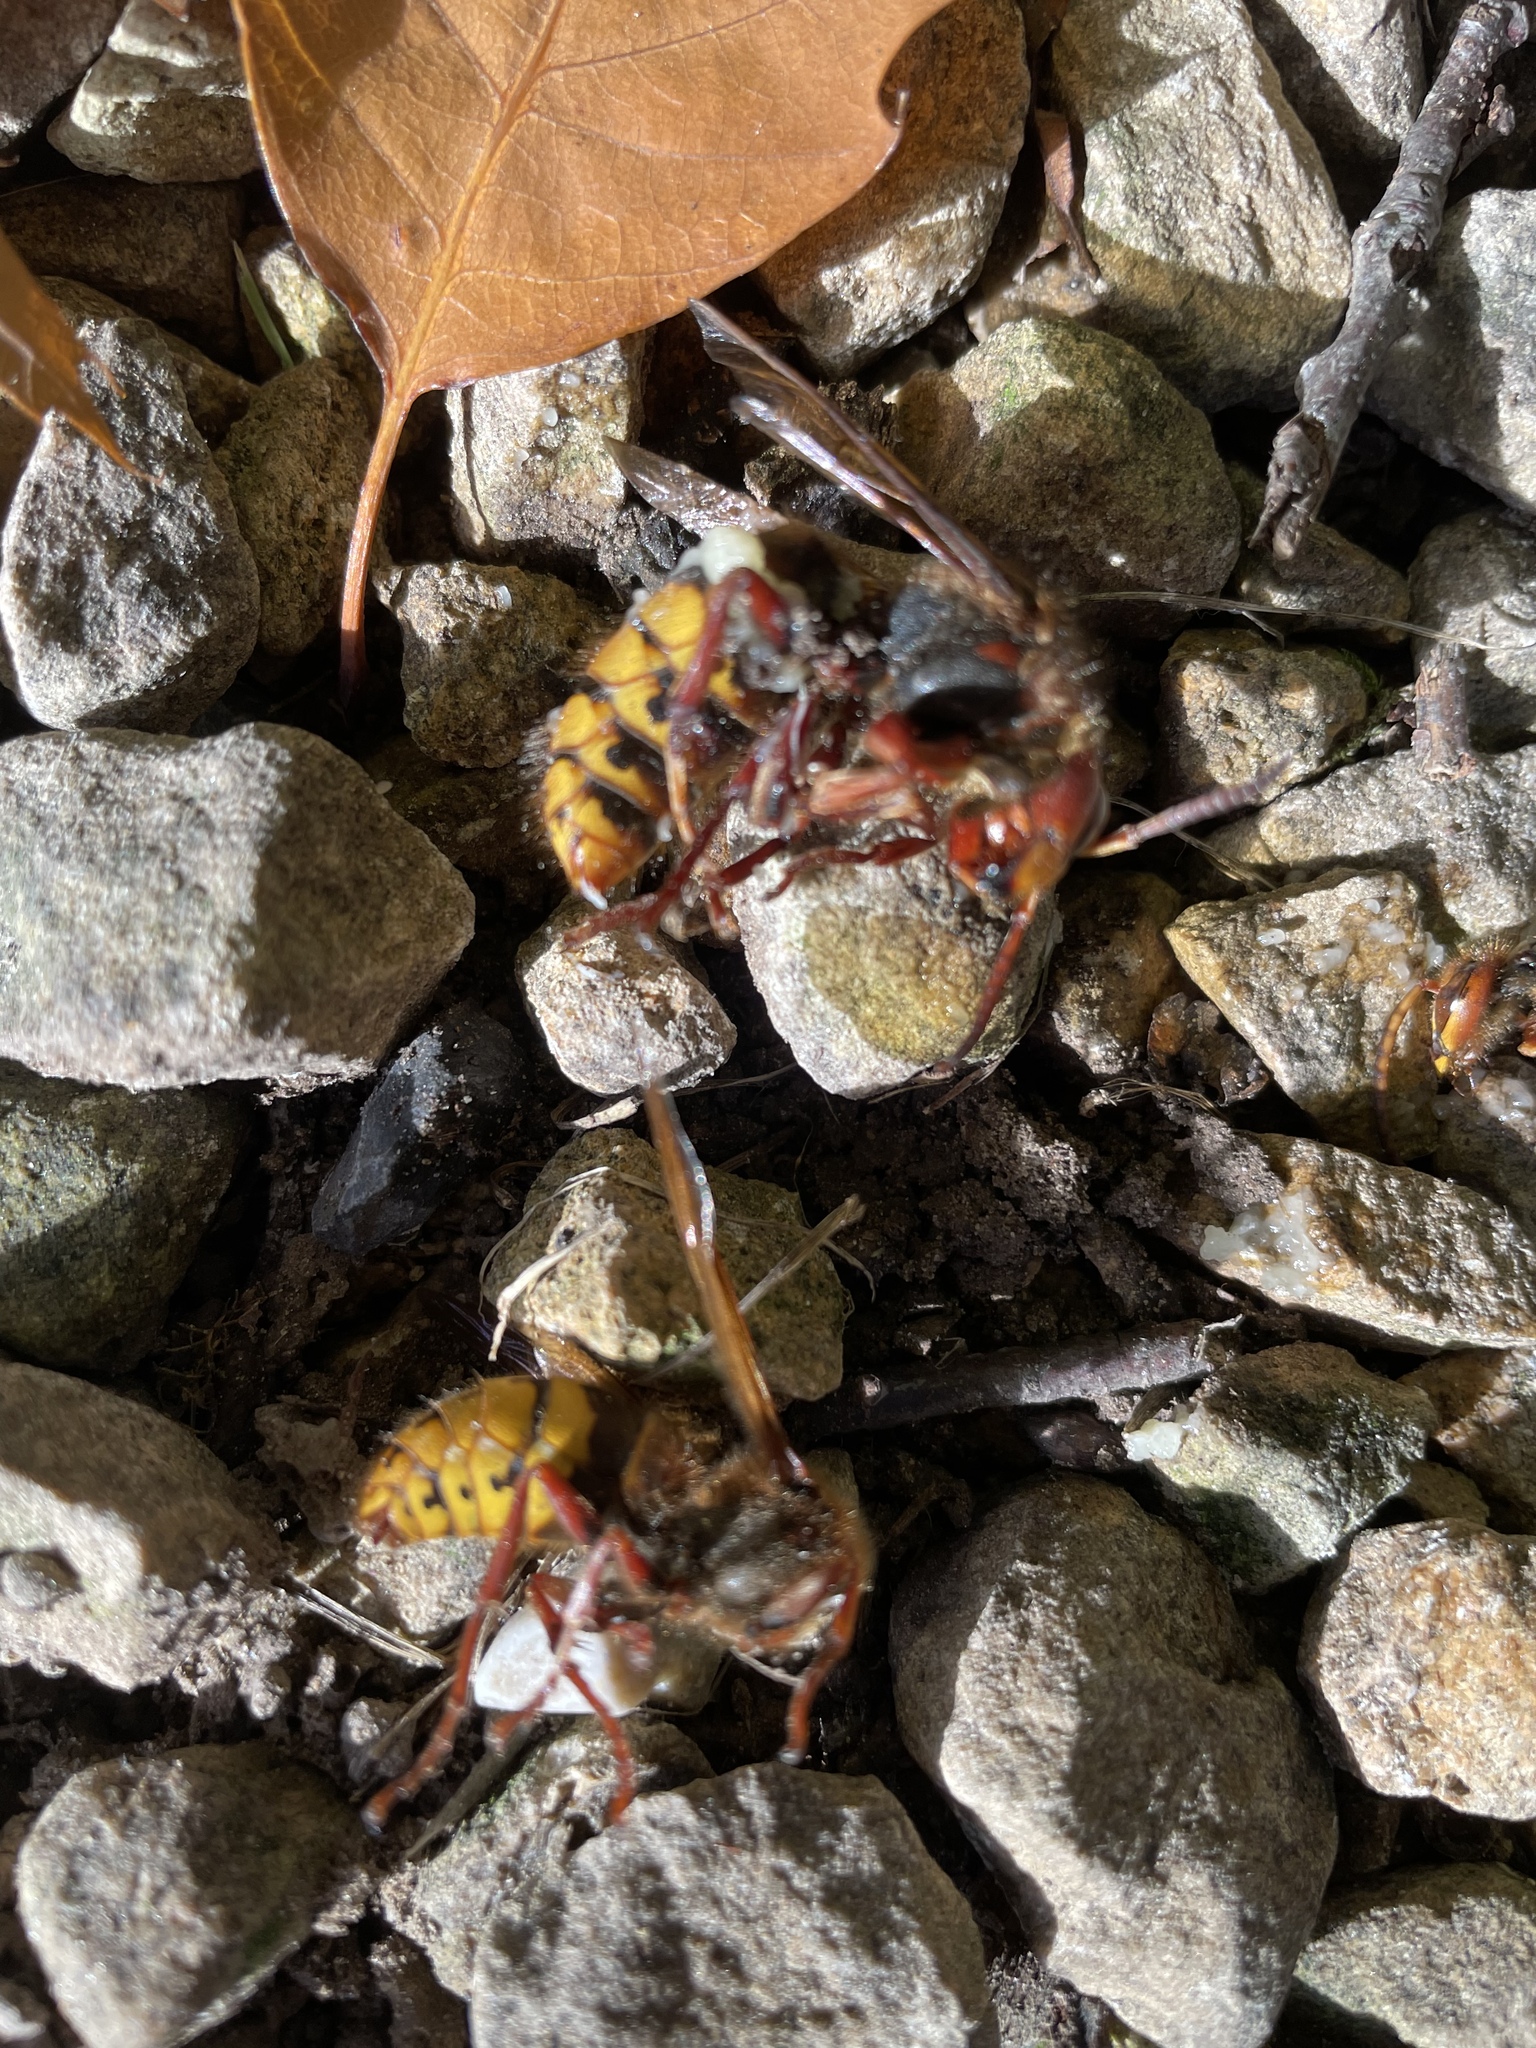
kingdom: Animalia
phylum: Arthropoda
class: Insecta
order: Hymenoptera
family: Vespidae
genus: Vespa
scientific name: Vespa crabro
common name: Hornet
